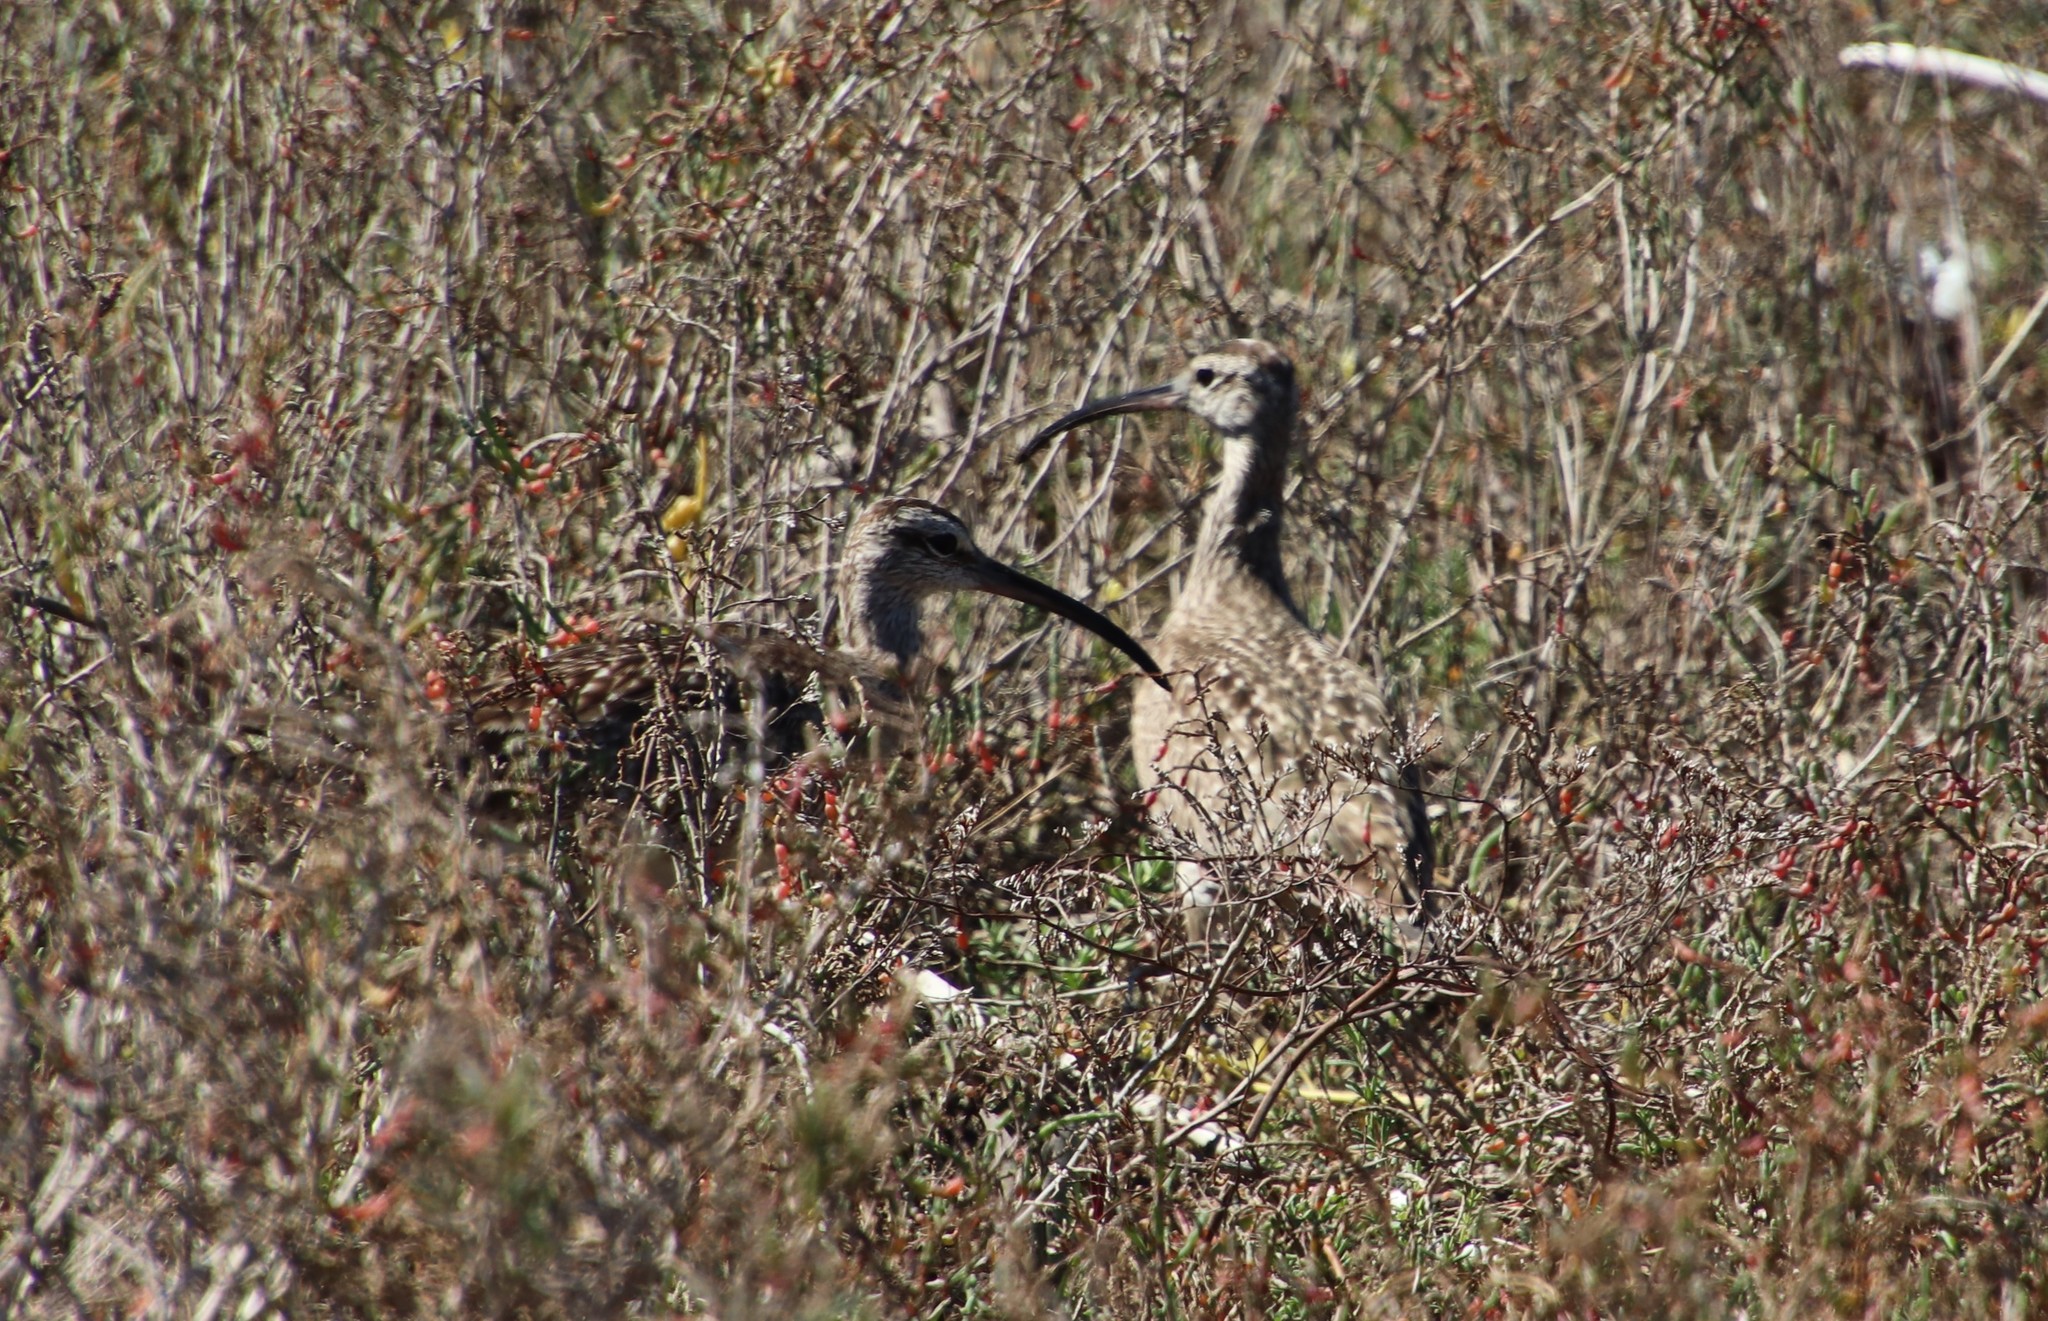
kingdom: Animalia
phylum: Chordata
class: Aves
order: Charadriiformes
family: Scolopacidae
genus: Numenius
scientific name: Numenius phaeopus
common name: Whimbrel
